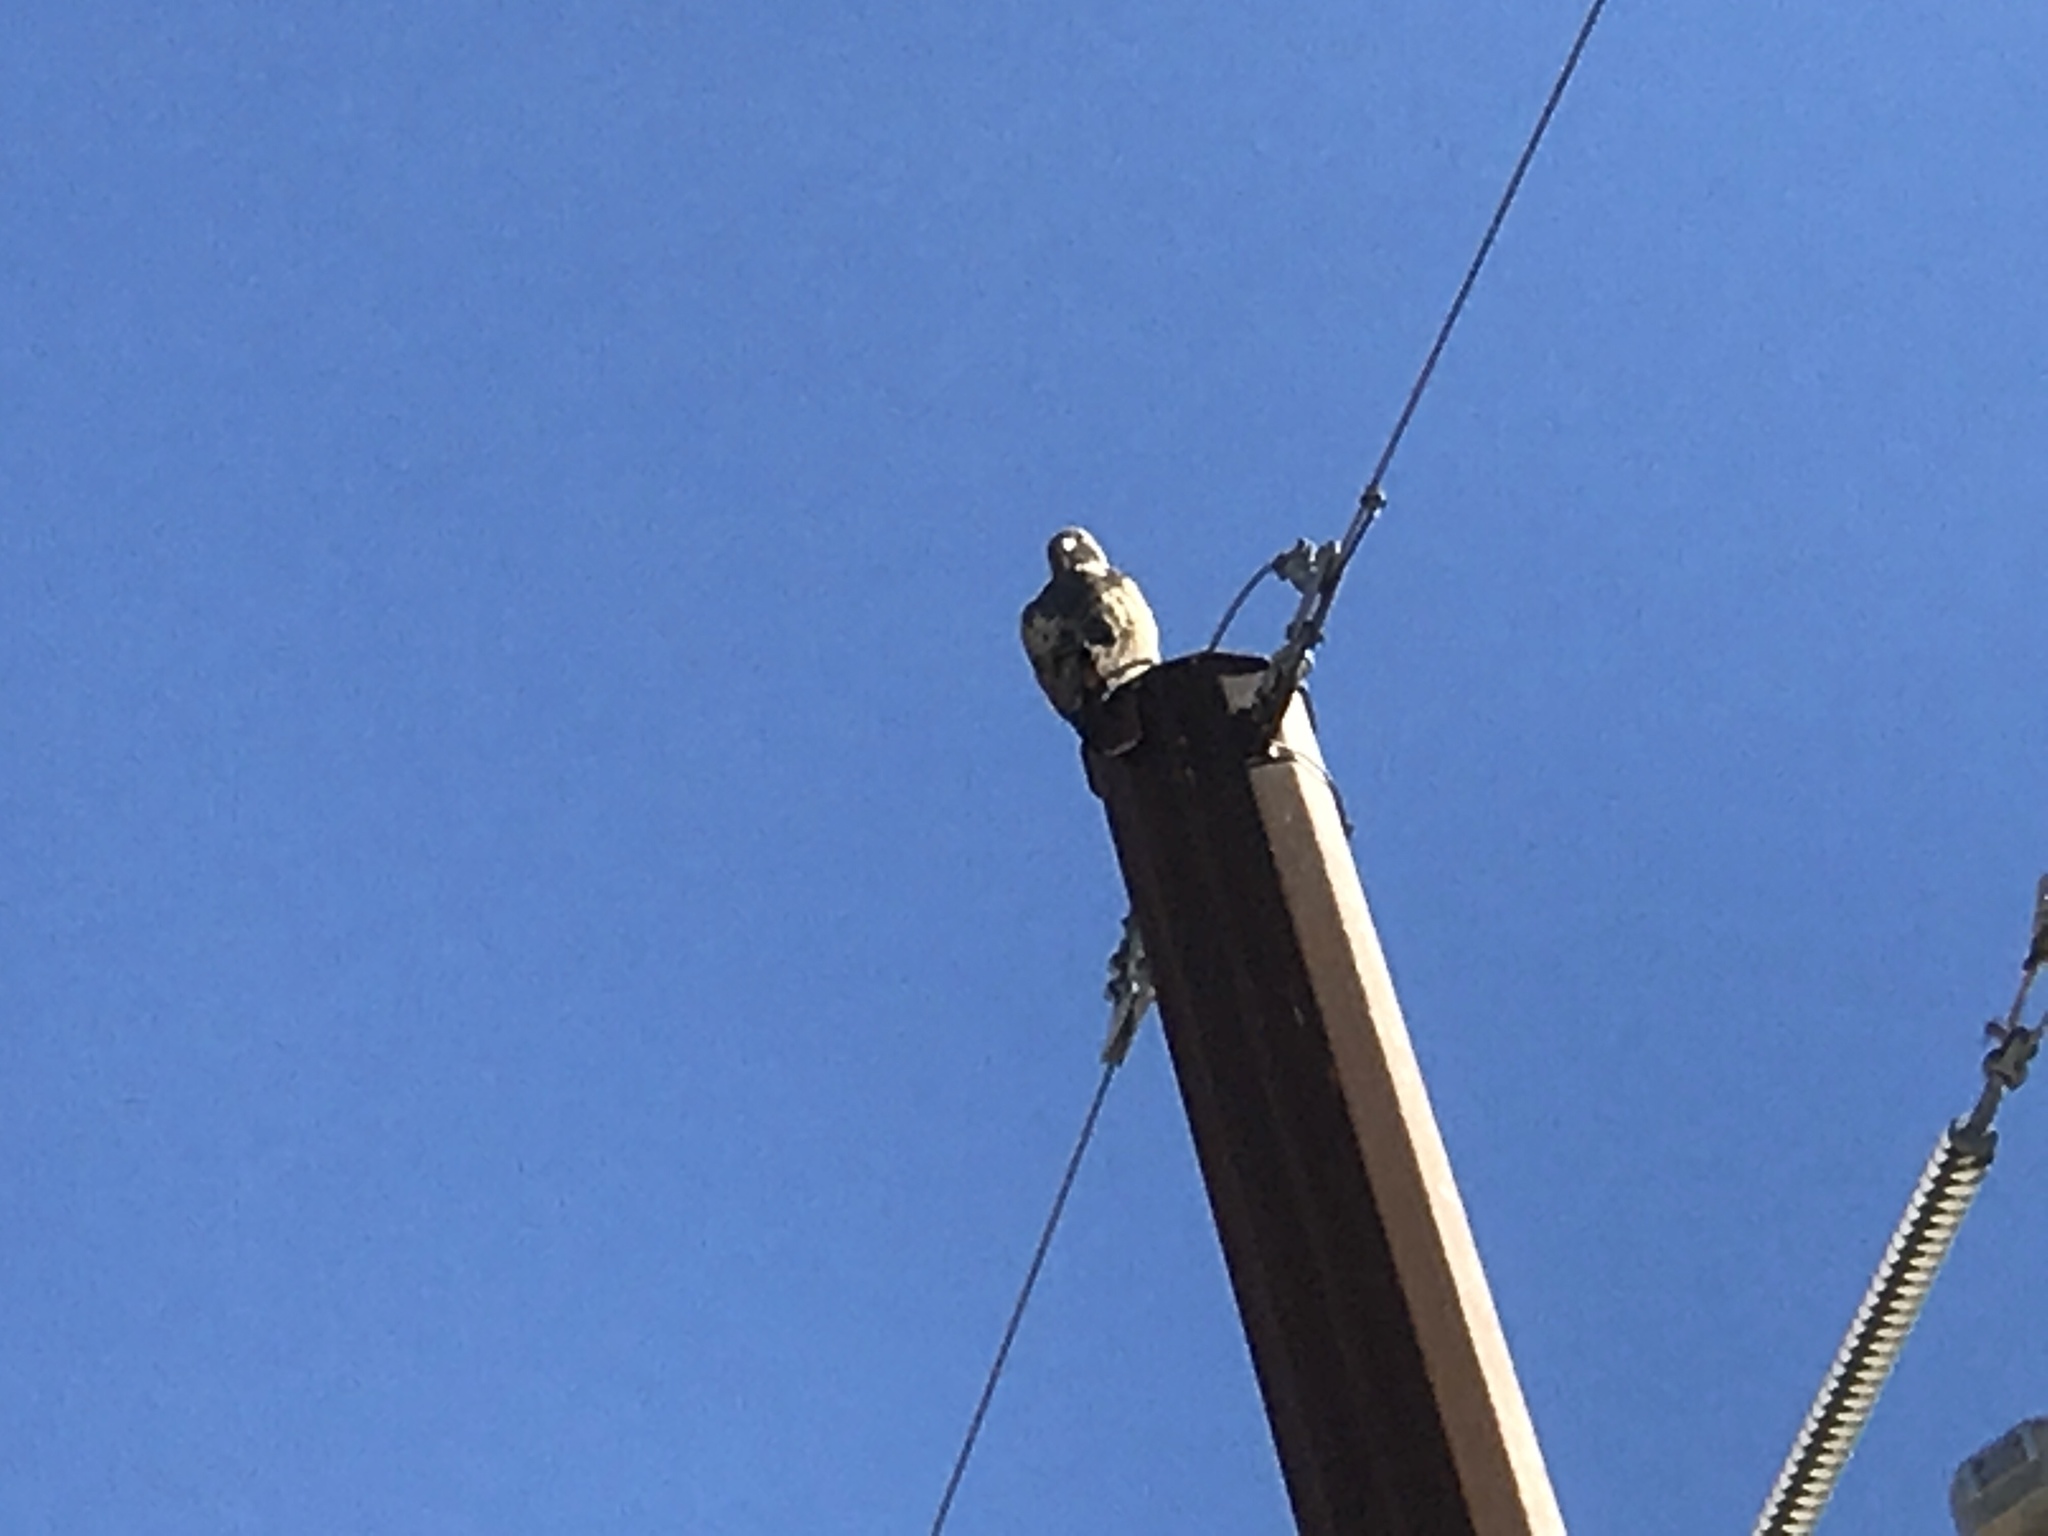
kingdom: Animalia
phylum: Chordata
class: Aves
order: Accipitriformes
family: Accipitridae
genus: Buteo
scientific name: Buteo jamaicensis
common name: Red-tailed hawk
